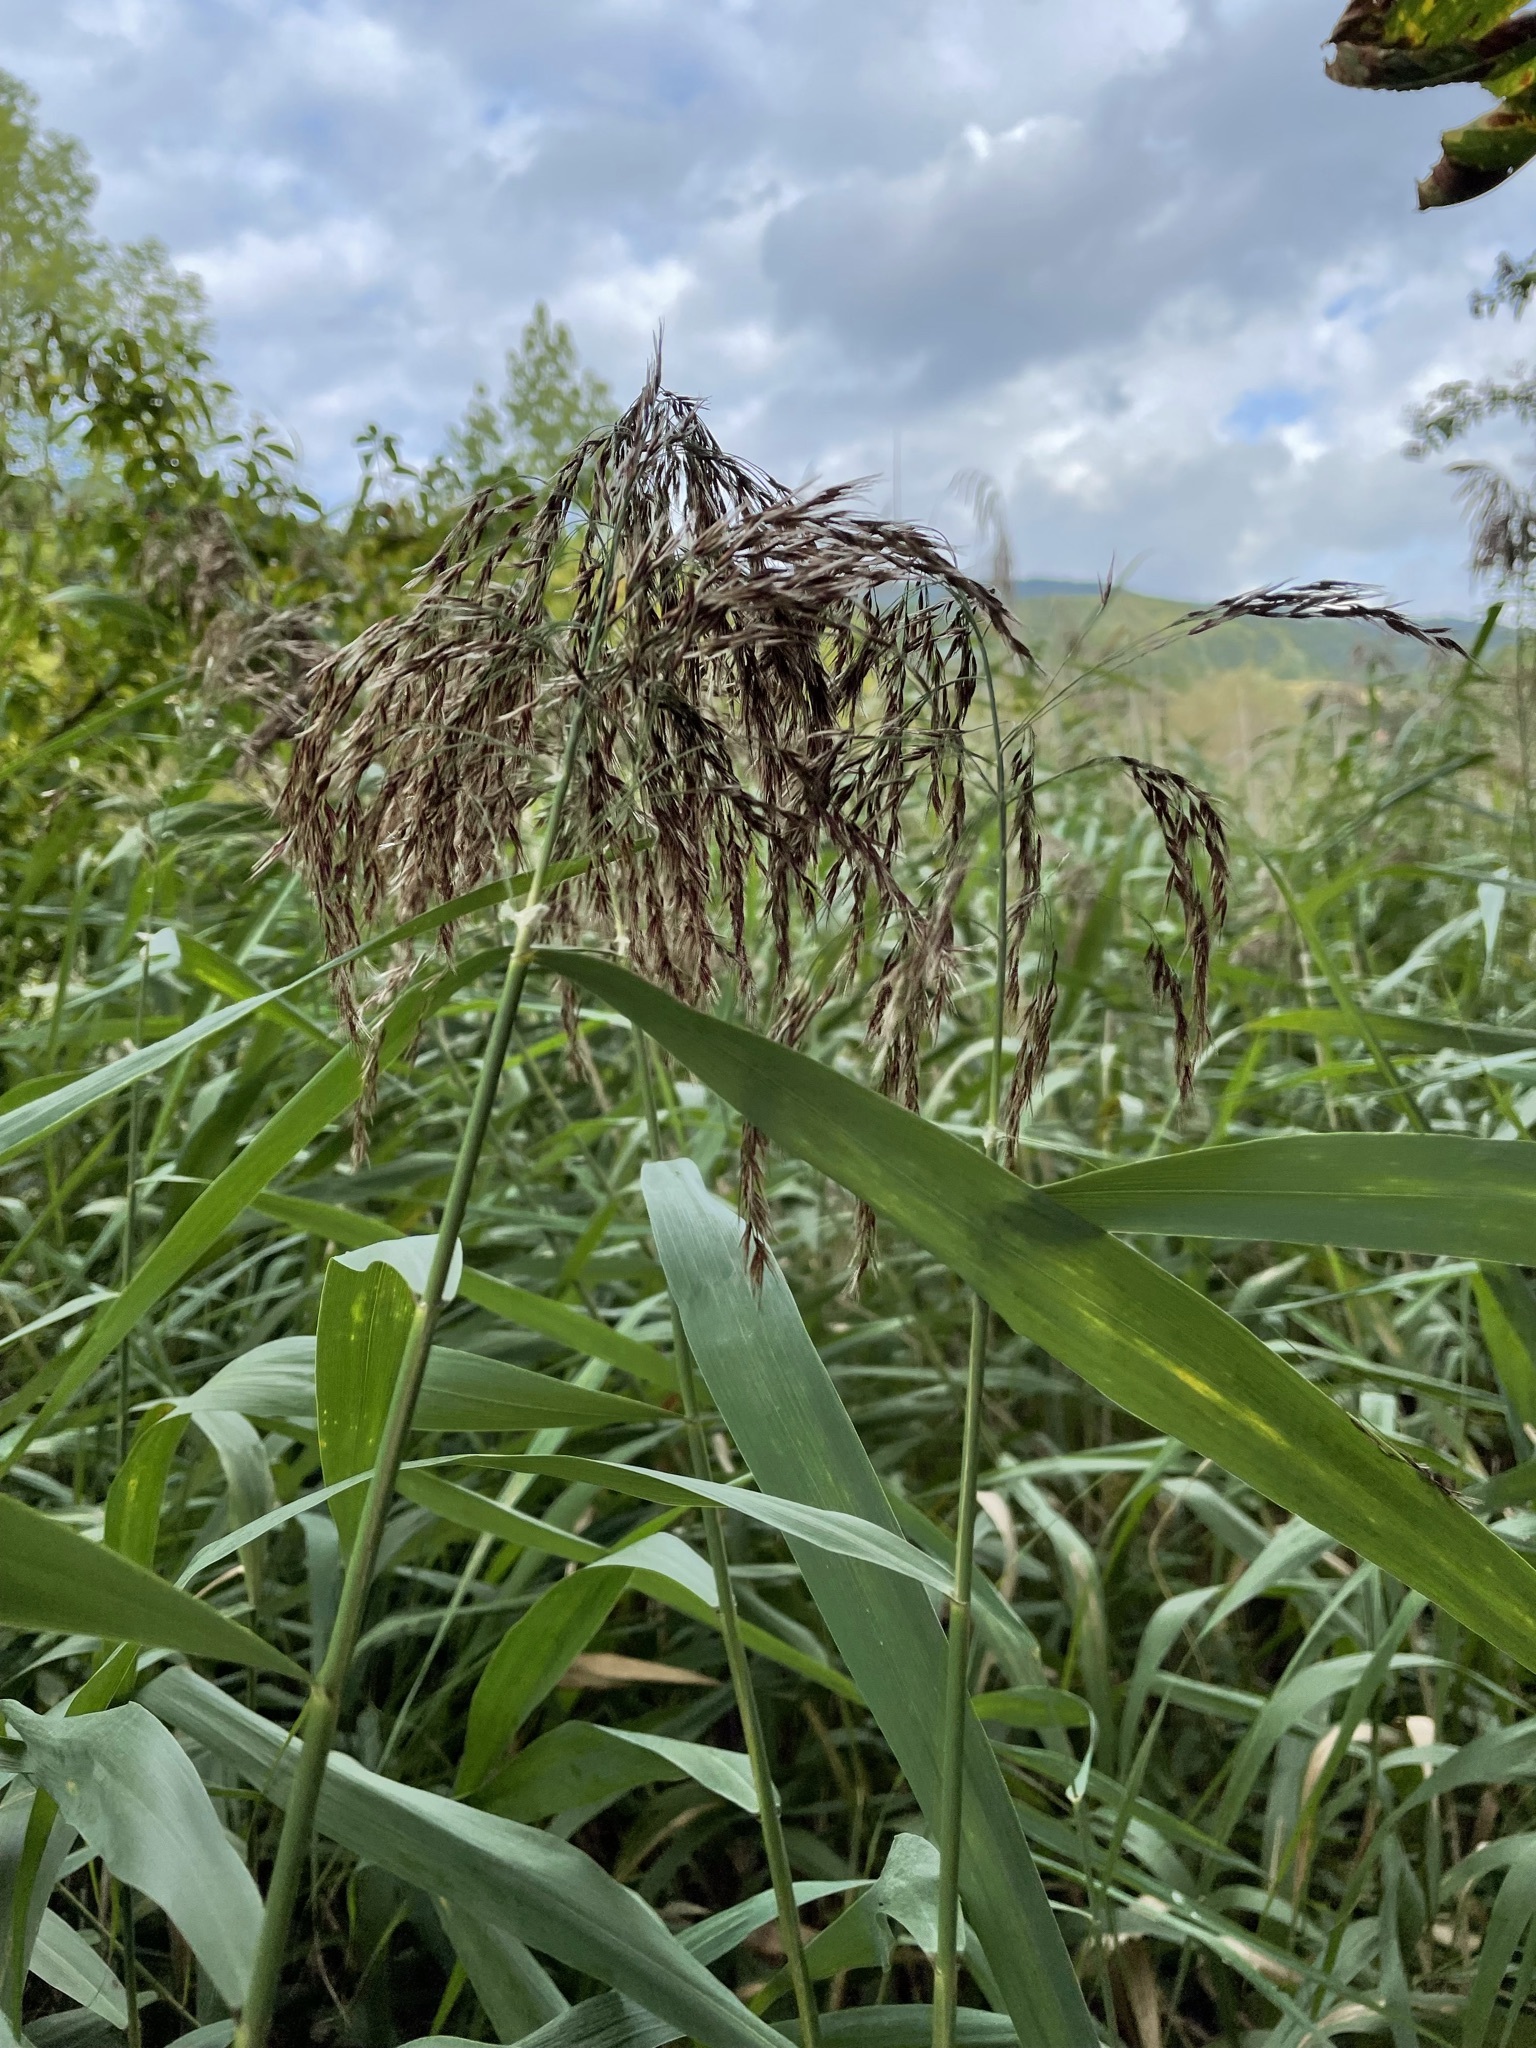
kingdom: Plantae
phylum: Tracheophyta
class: Liliopsida
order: Poales
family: Poaceae
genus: Phragmites
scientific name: Phragmites australis
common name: Common reed
